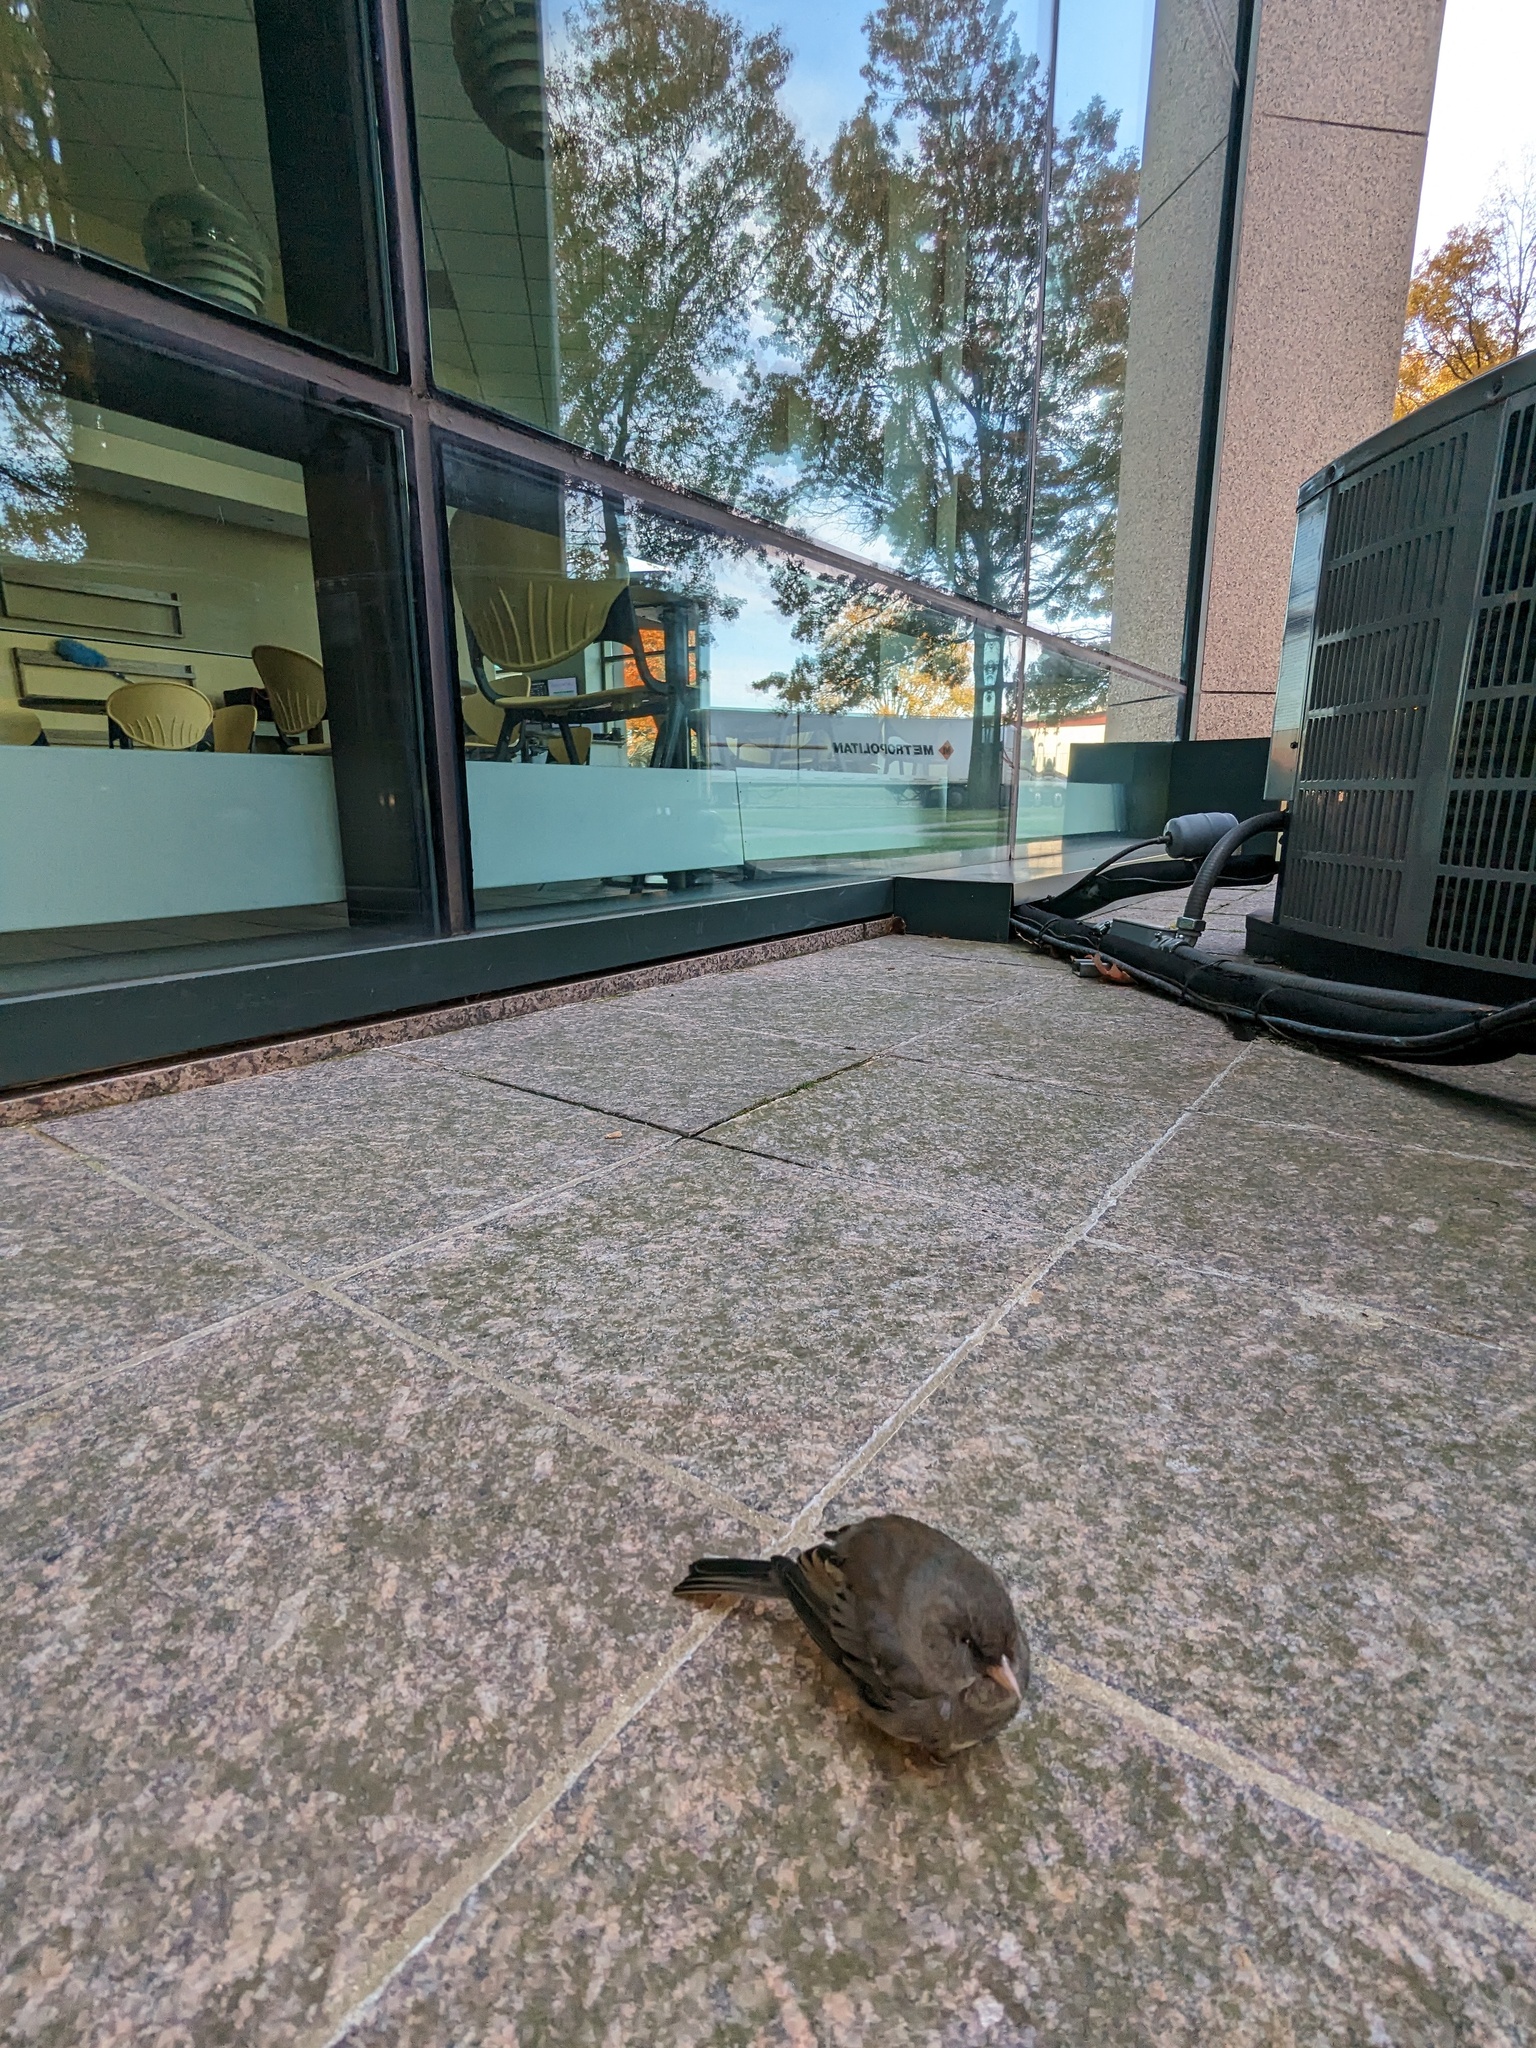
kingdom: Animalia
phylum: Chordata
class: Aves
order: Passeriformes
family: Passerellidae
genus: Junco
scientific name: Junco hyemalis
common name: Dark-eyed junco
